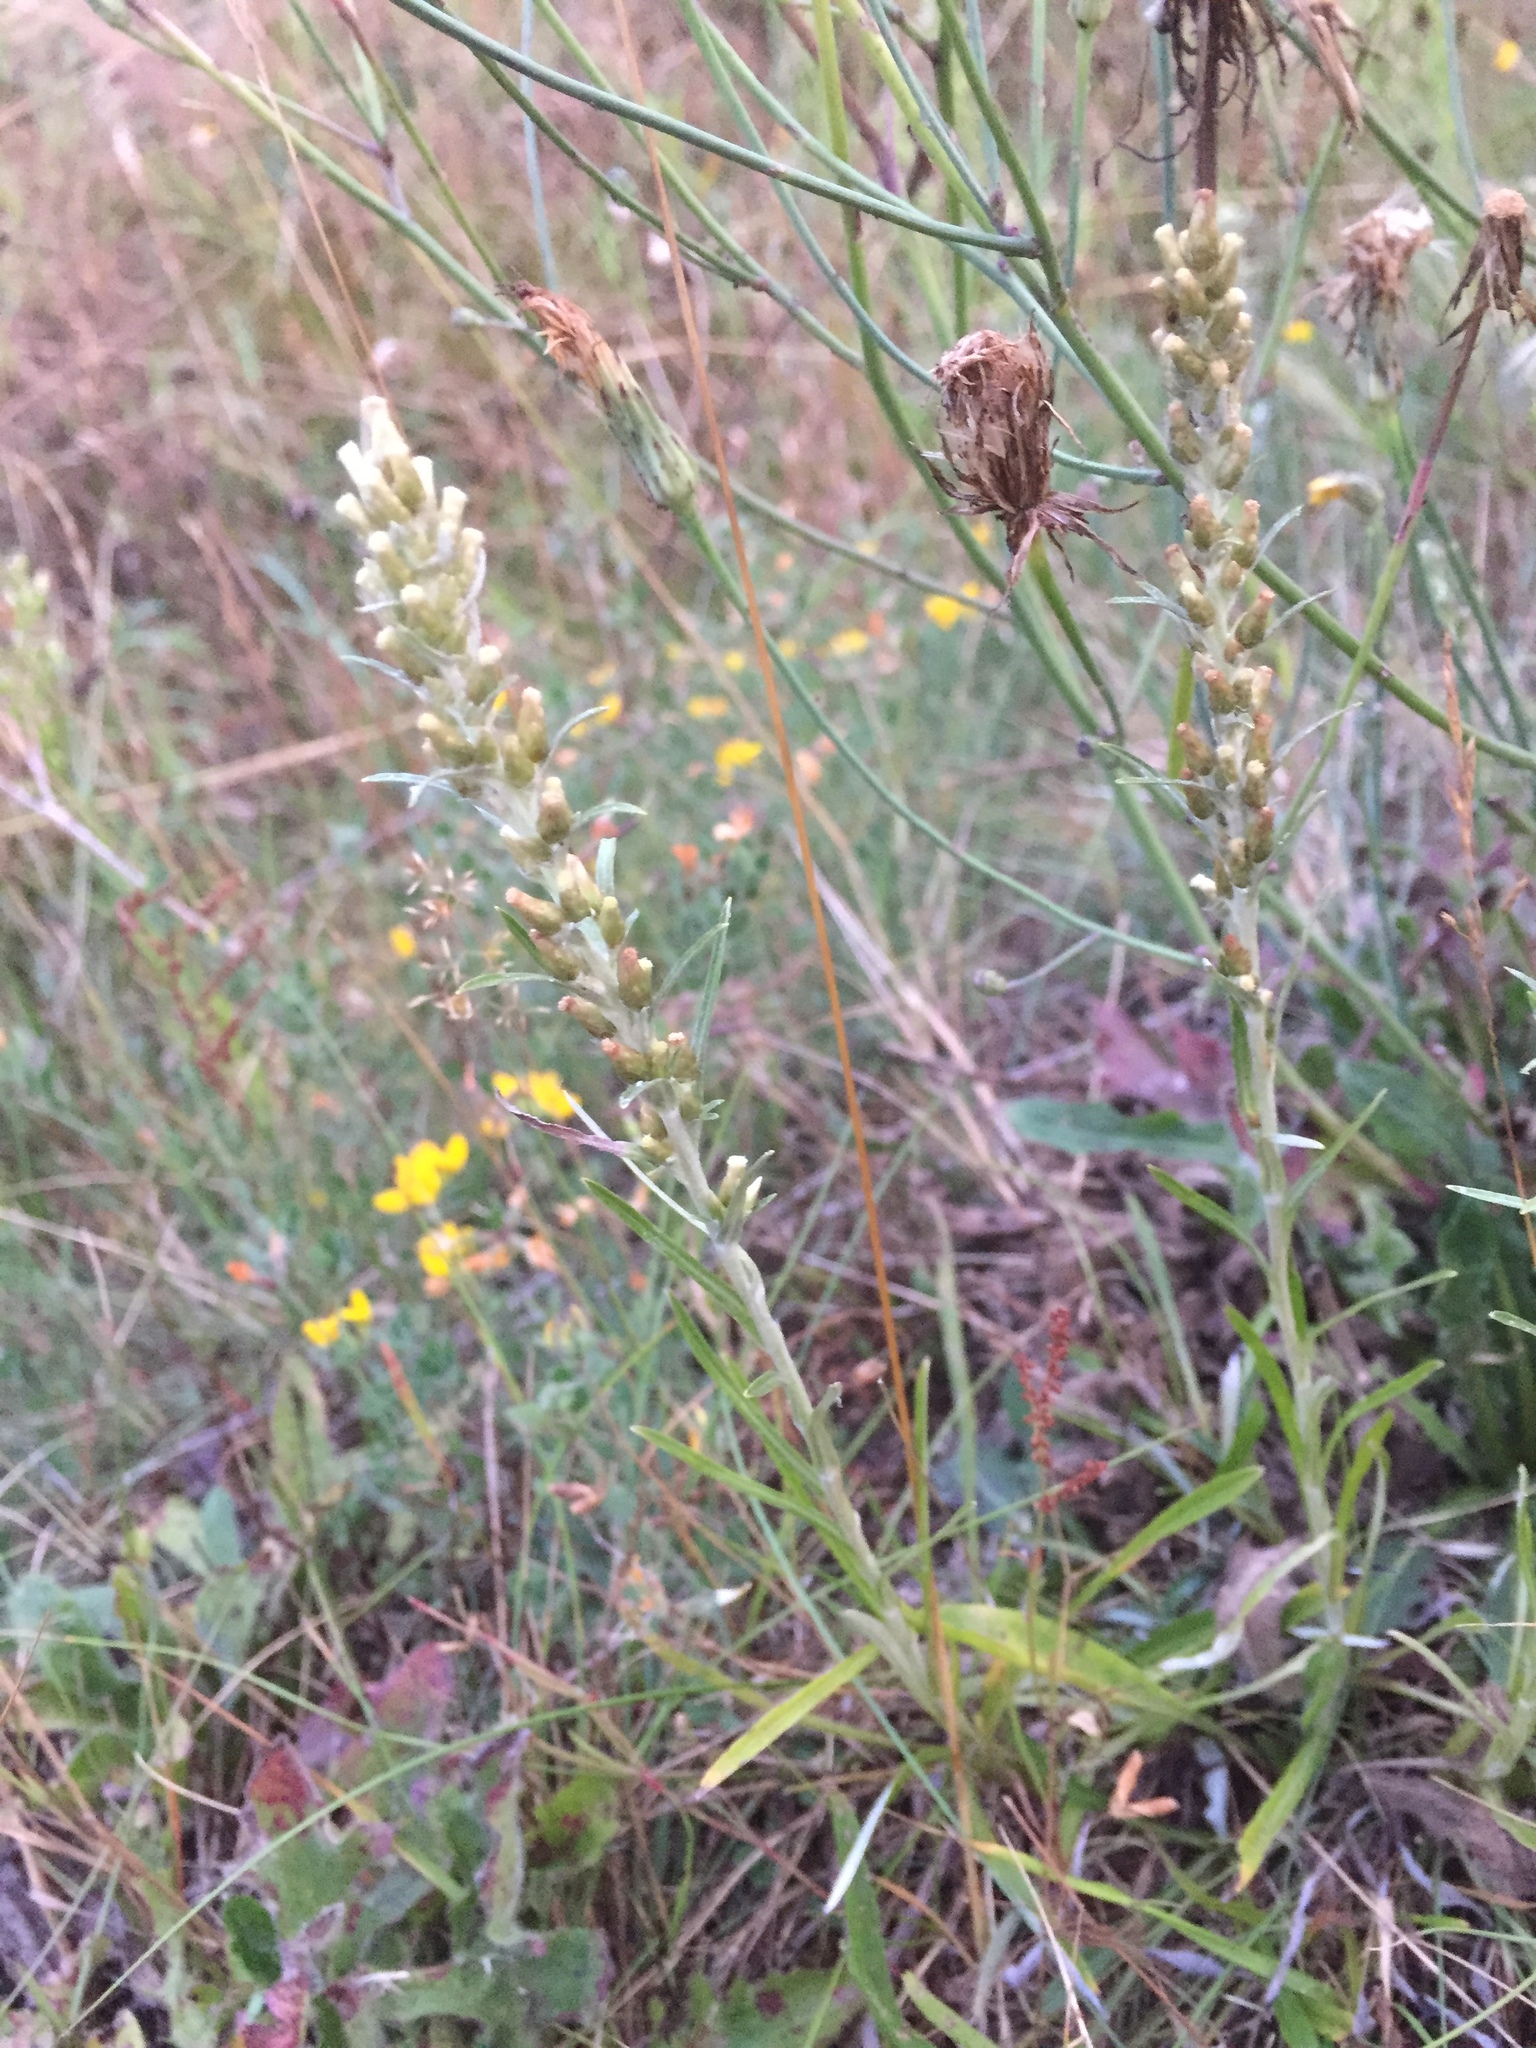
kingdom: Plantae
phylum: Tracheophyta
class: Magnoliopsida
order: Asterales
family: Asteraceae
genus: Omalotheca
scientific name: Omalotheca sylvatica
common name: Heath cudweed
